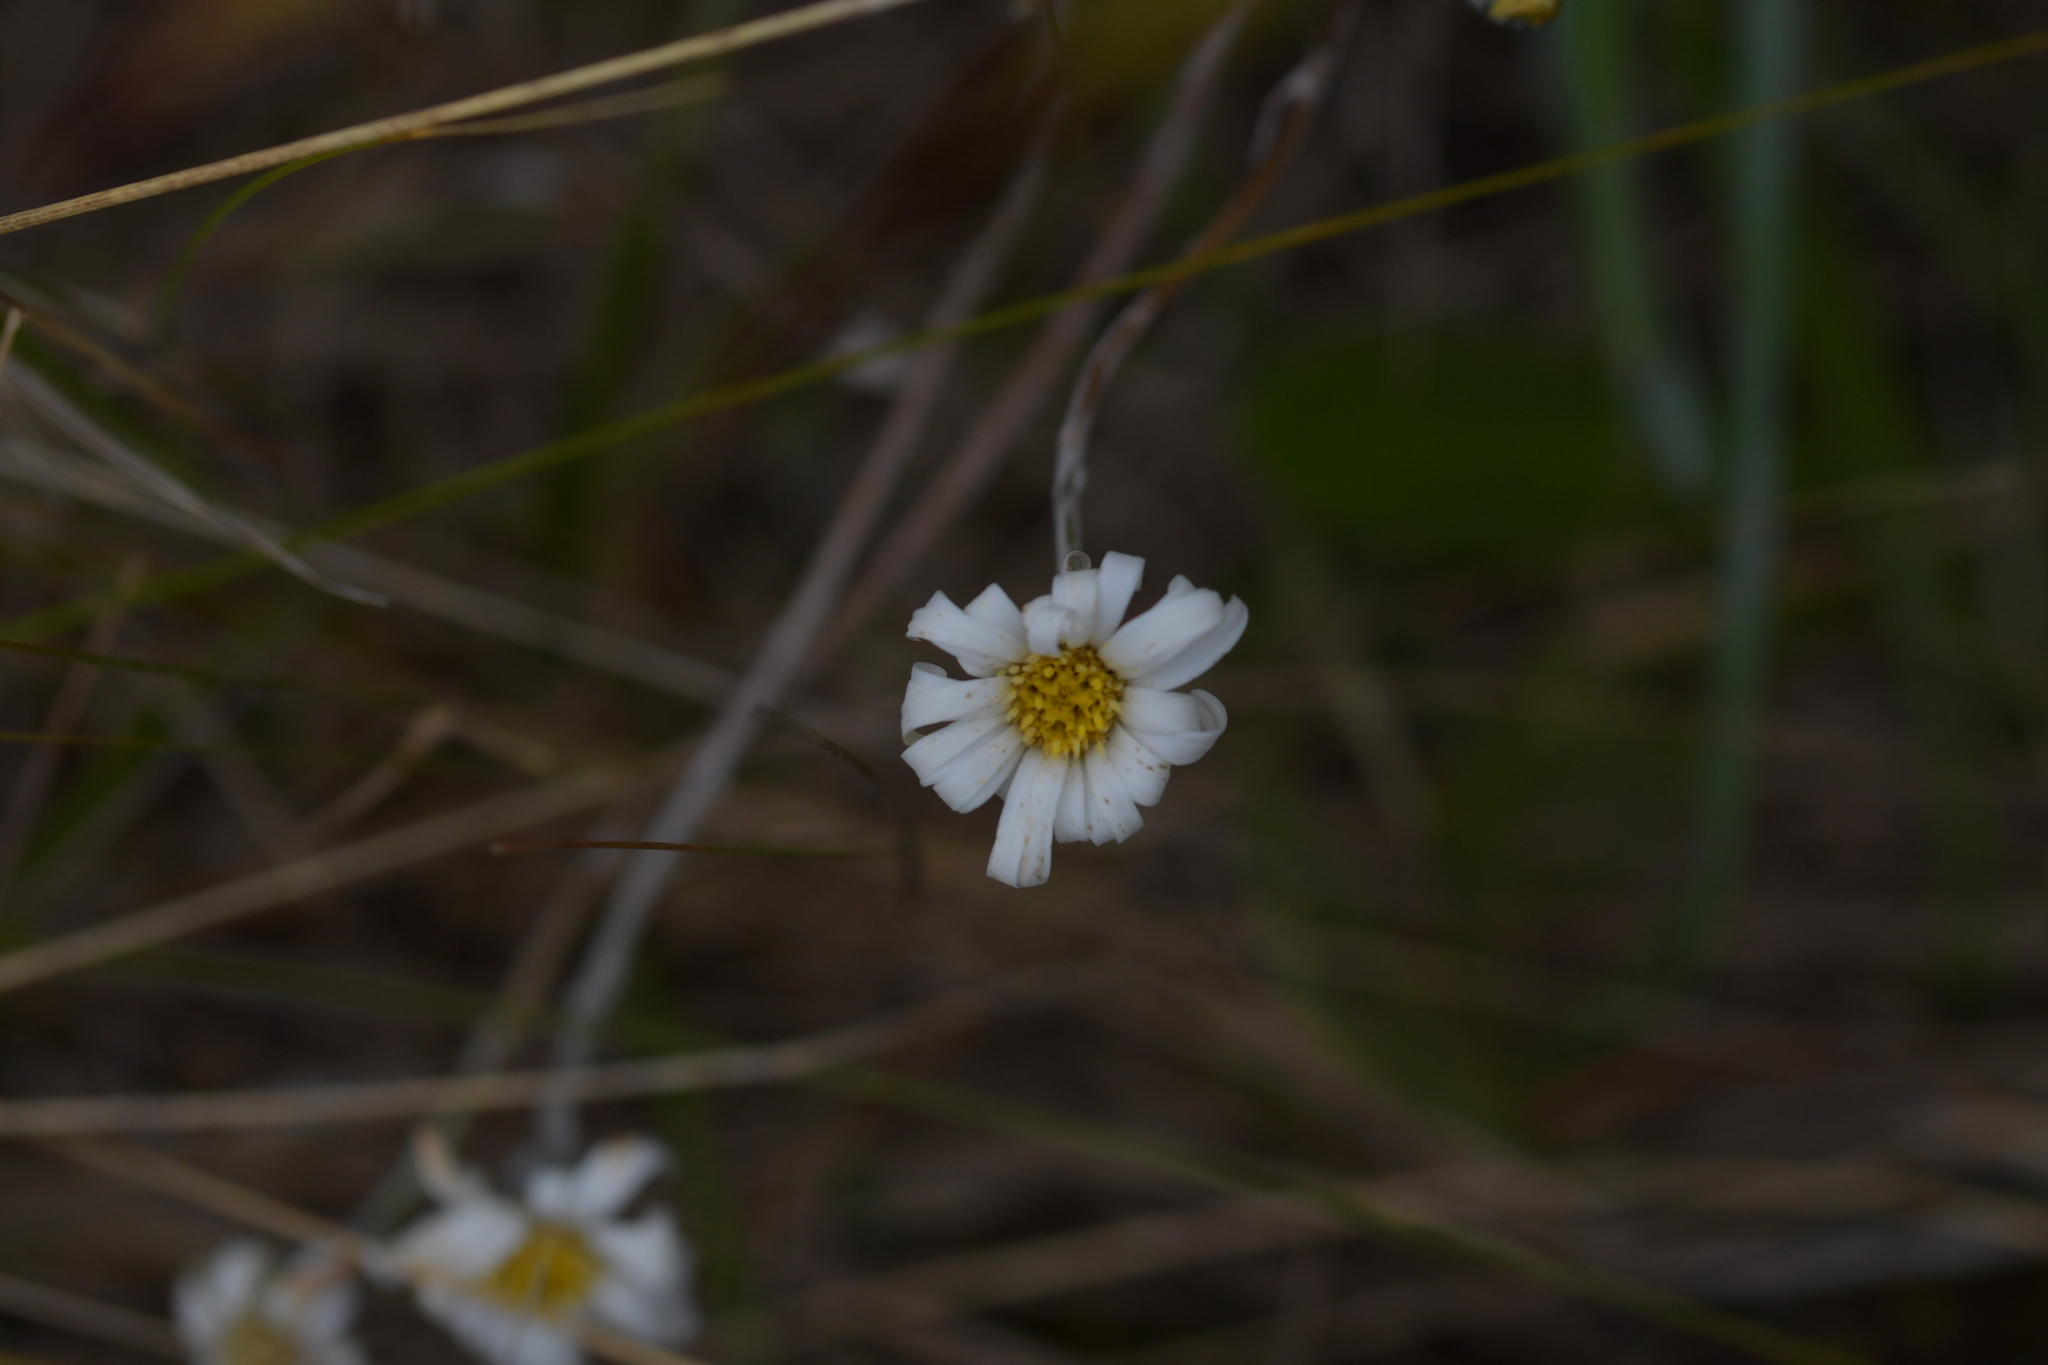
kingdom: Plantae
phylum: Tracheophyta
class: Magnoliopsida
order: Asterales
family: Asteraceae
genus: Celmisia
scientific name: Celmisia gracilenta
